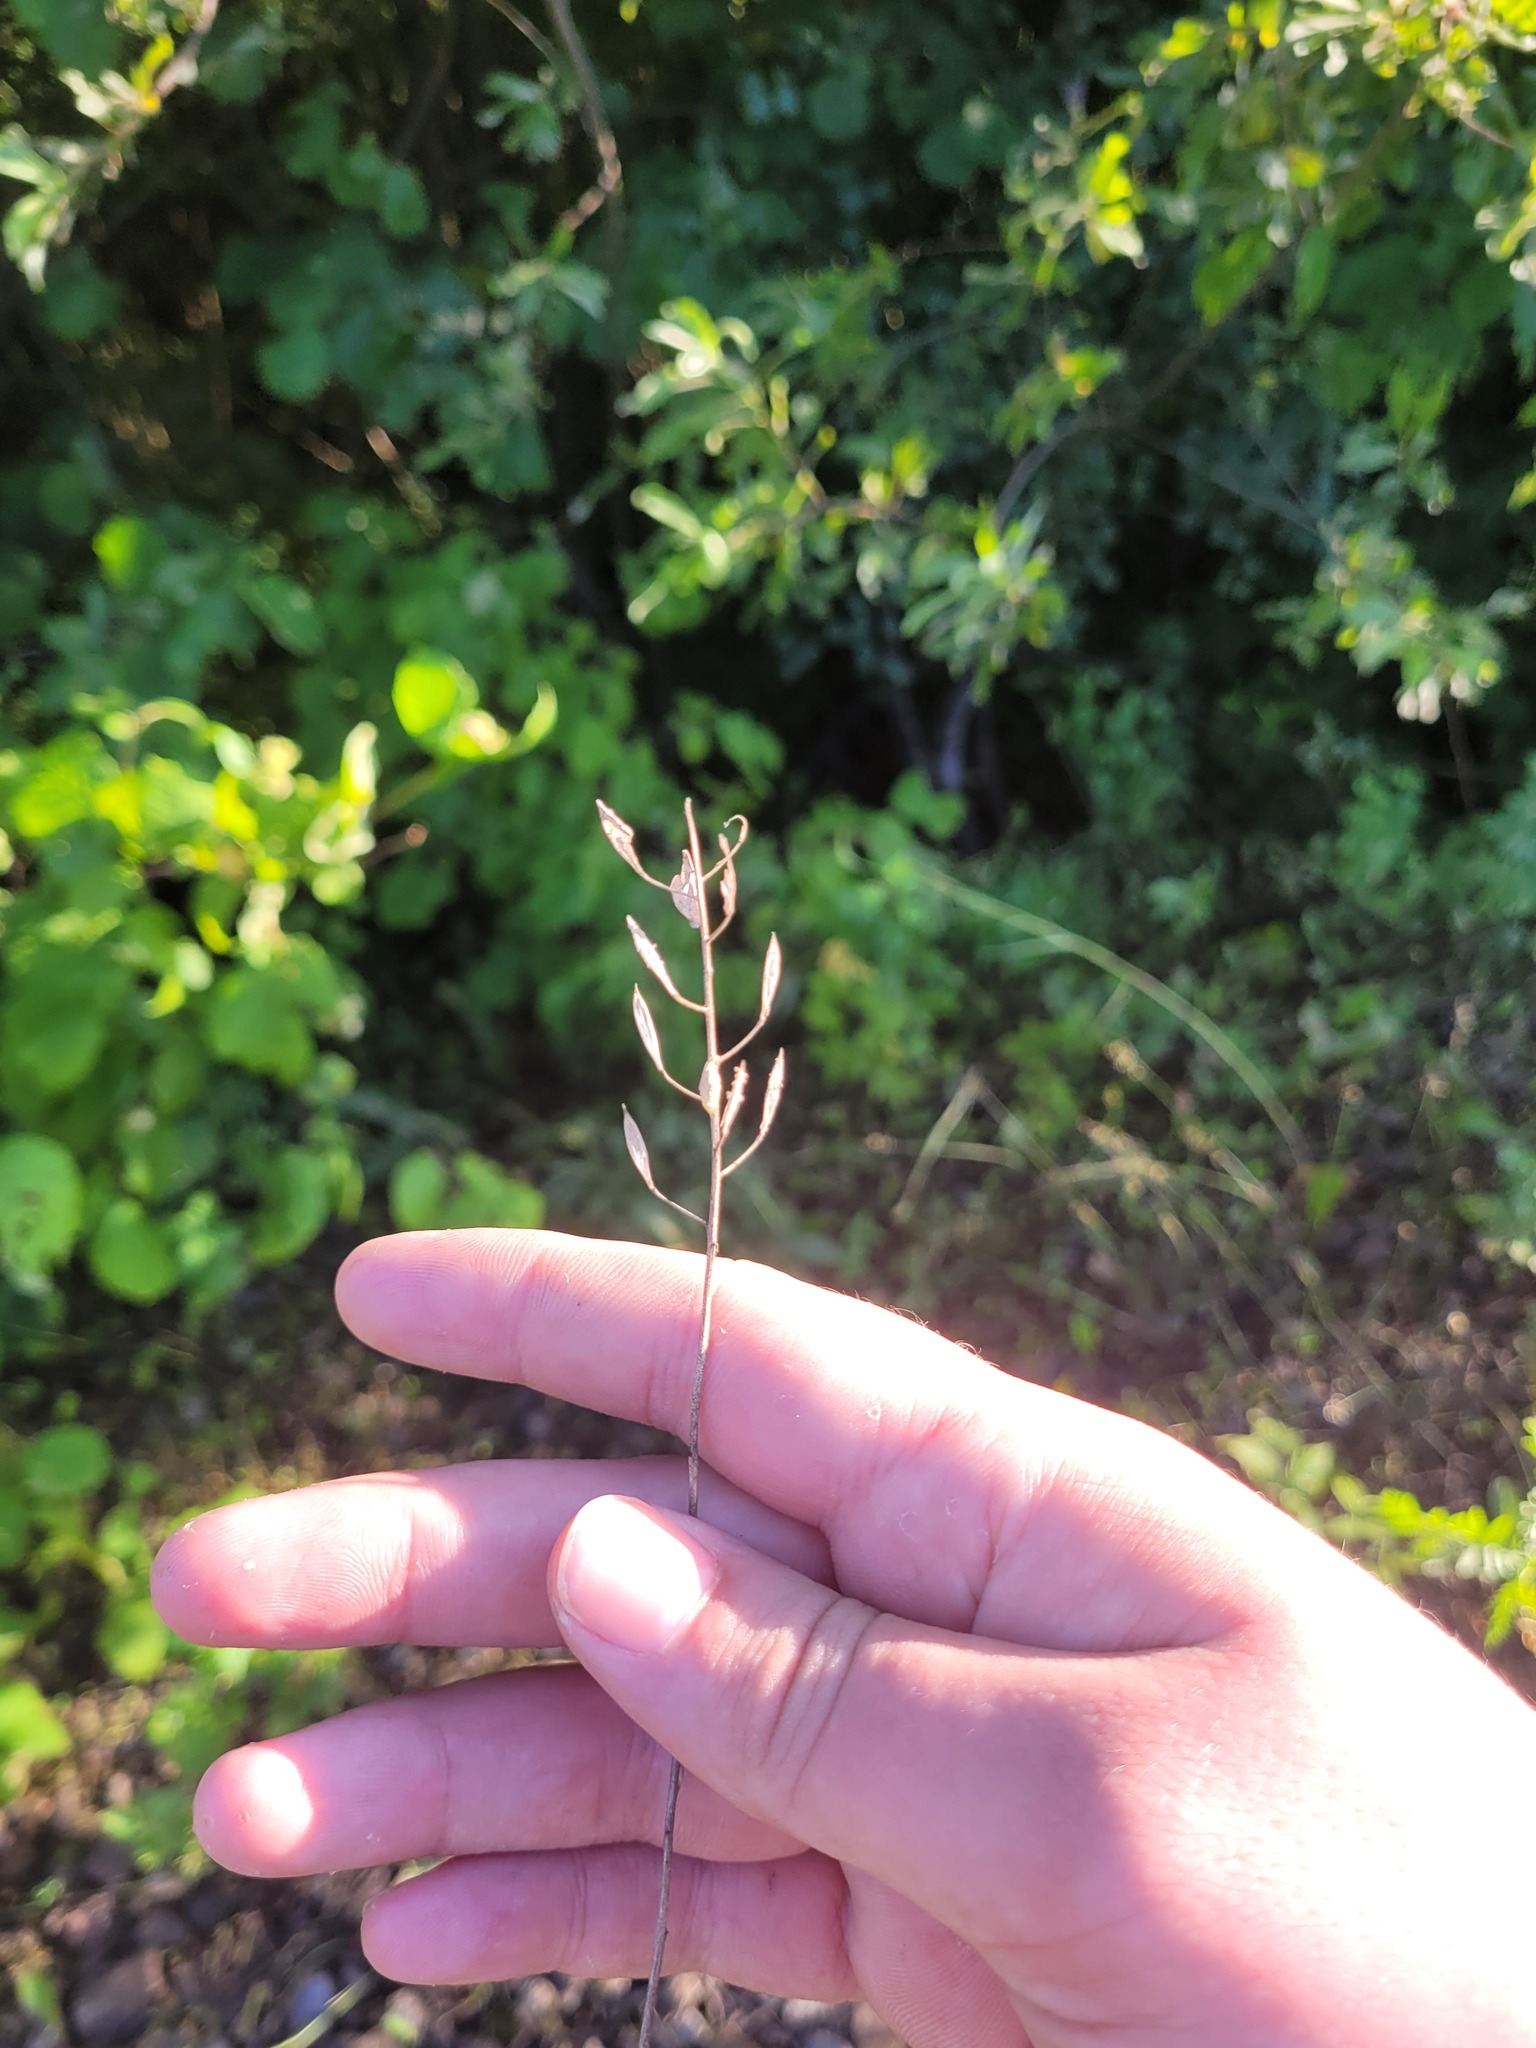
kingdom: Plantae
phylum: Tracheophyta
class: Magnoliopsida
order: Brassicales
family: Brassicaceae
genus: Thlaspi
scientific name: Thlaspi arvense
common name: Field pennycress
